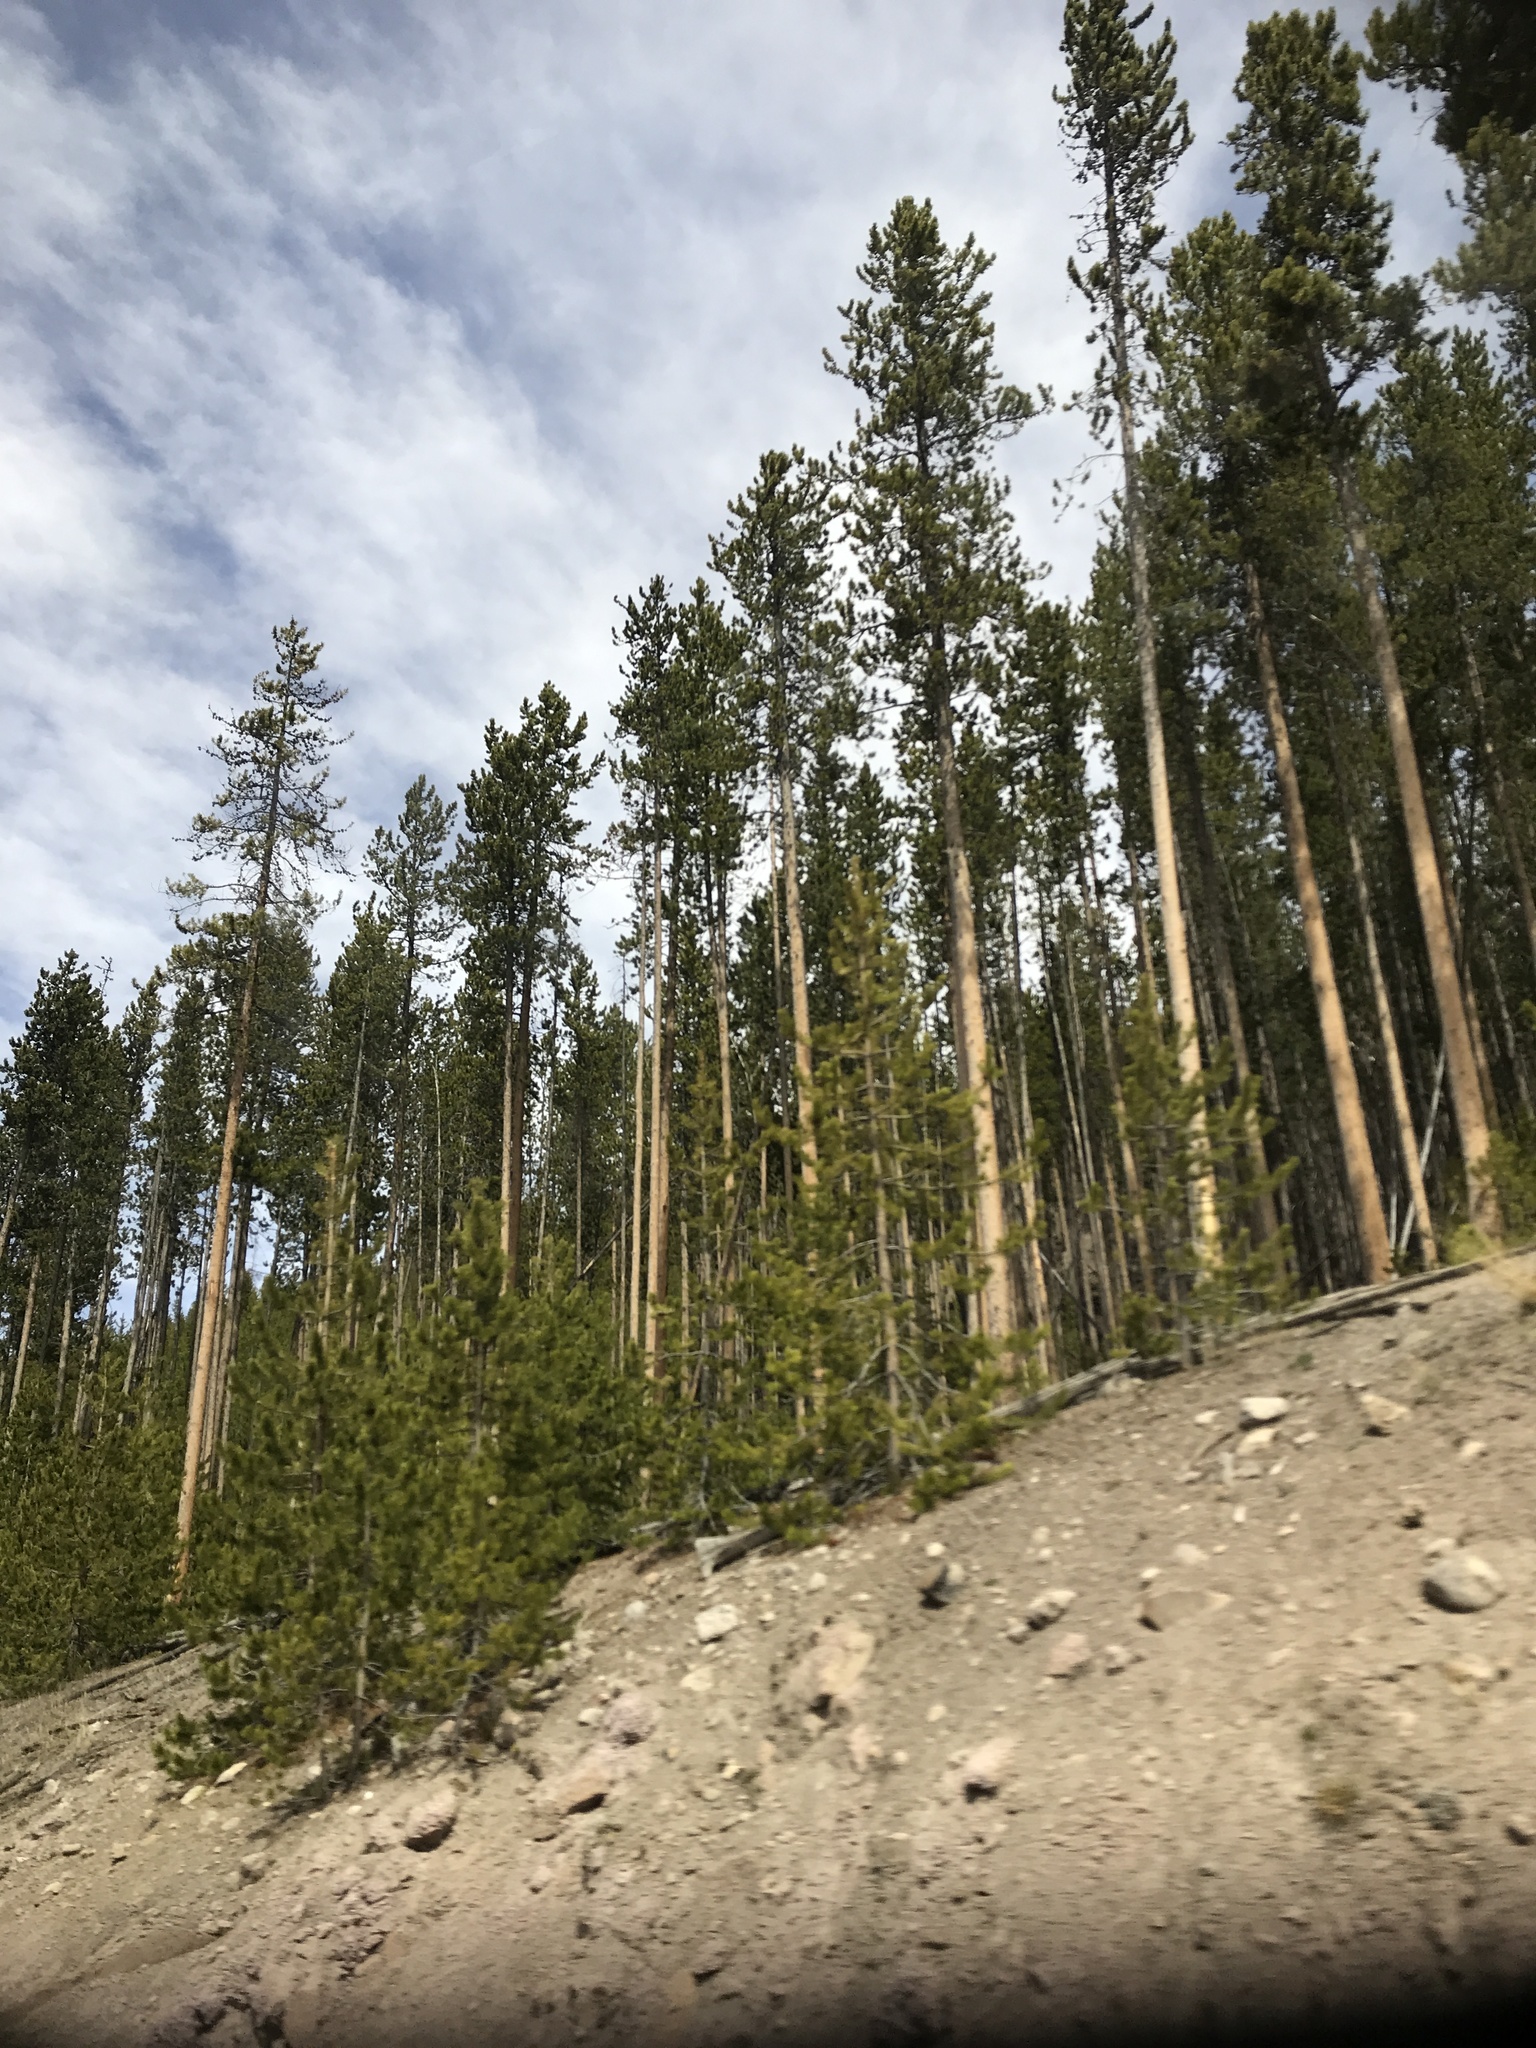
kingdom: Plantae
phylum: Tracheophyta
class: Pinopsida
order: Pinales
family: Pinaceae
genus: Pinus
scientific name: Pinus contorta
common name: Lodgepole pine
